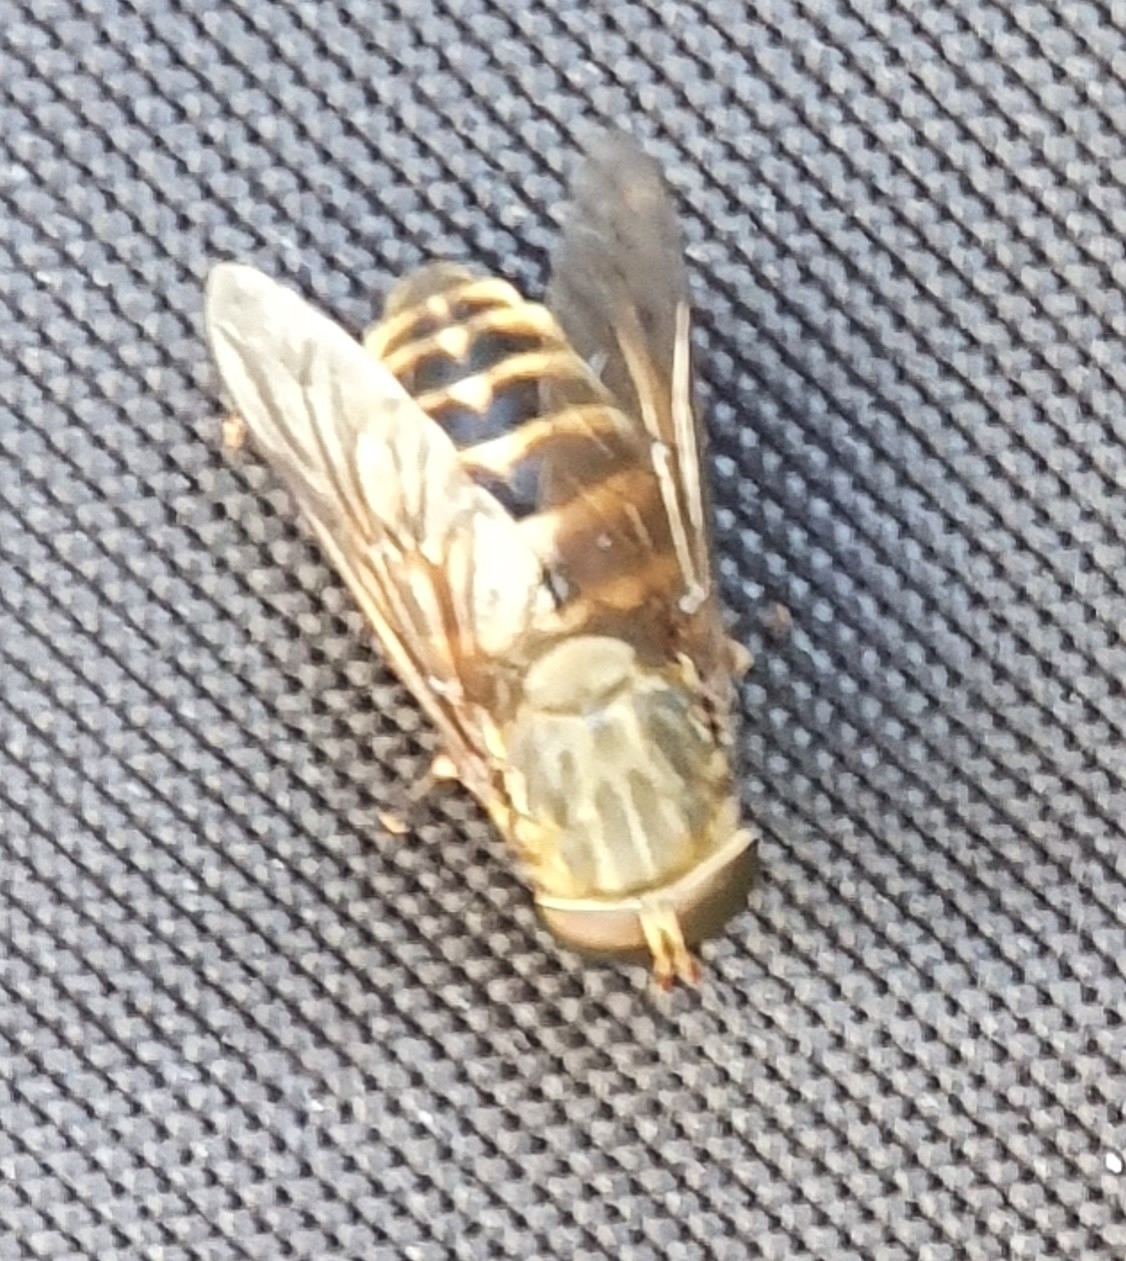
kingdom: Animalia
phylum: Arthropoda
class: Insecta
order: Diptera
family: Tabanidae
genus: Tabanus
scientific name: Tabanus sudeticus
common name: Dark giant horsefly
